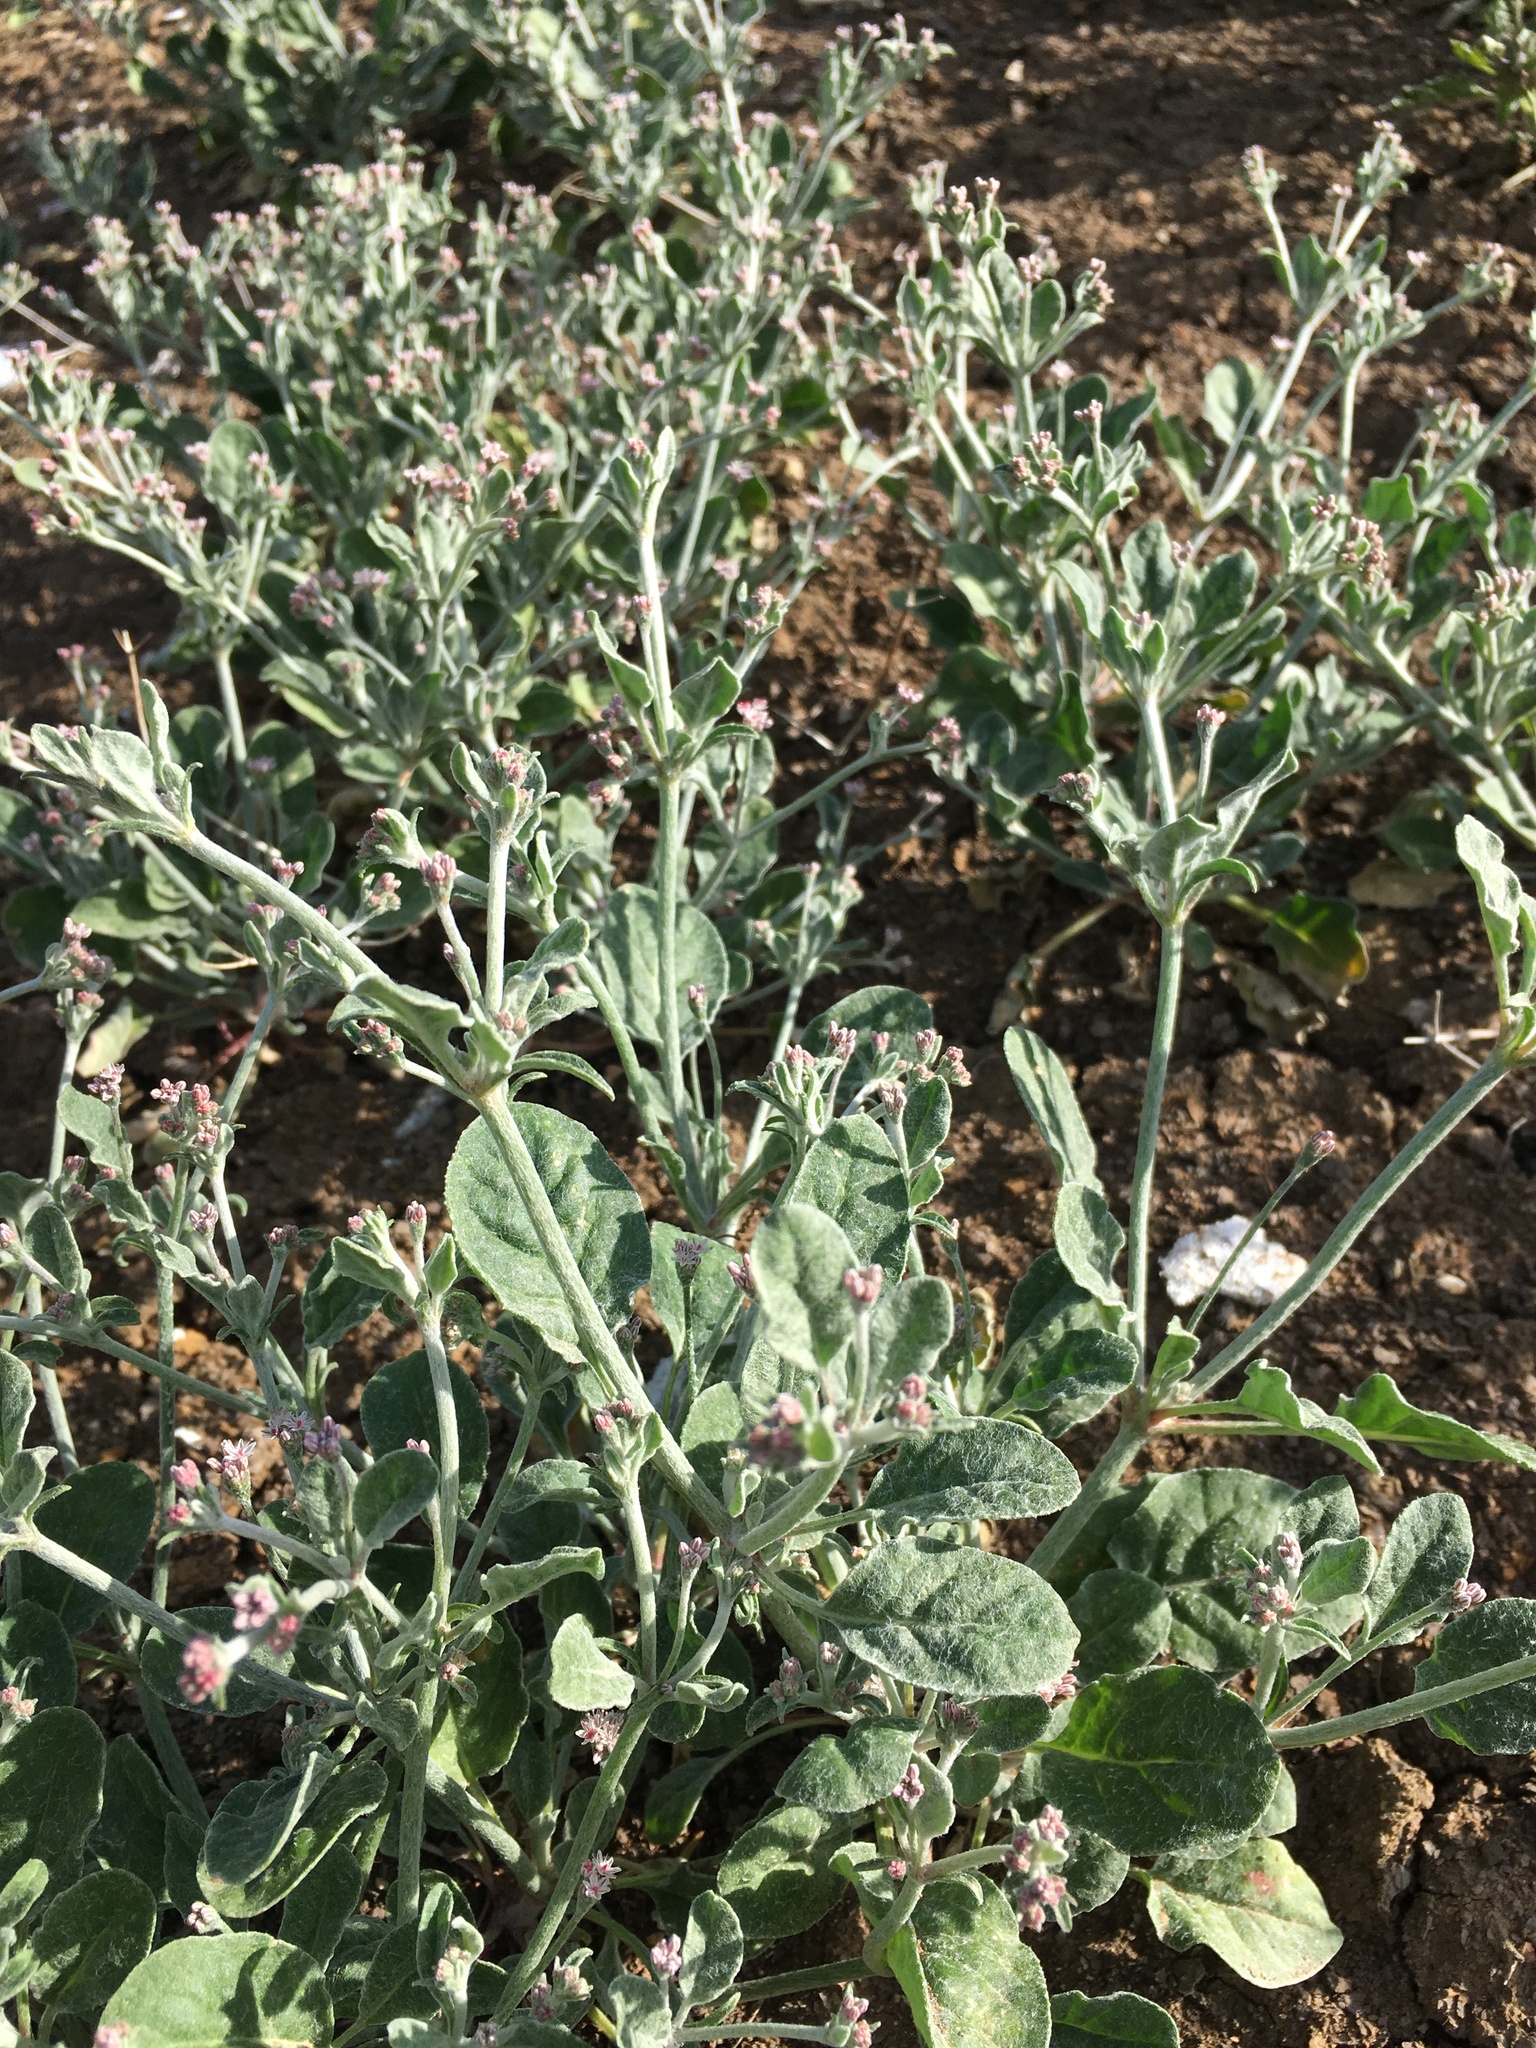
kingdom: Plantae
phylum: Tracheophyta
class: Magnoliopsida
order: Caryophyllales
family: Polygonaceae
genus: Eriogonum
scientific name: Eriogonum vestitum
